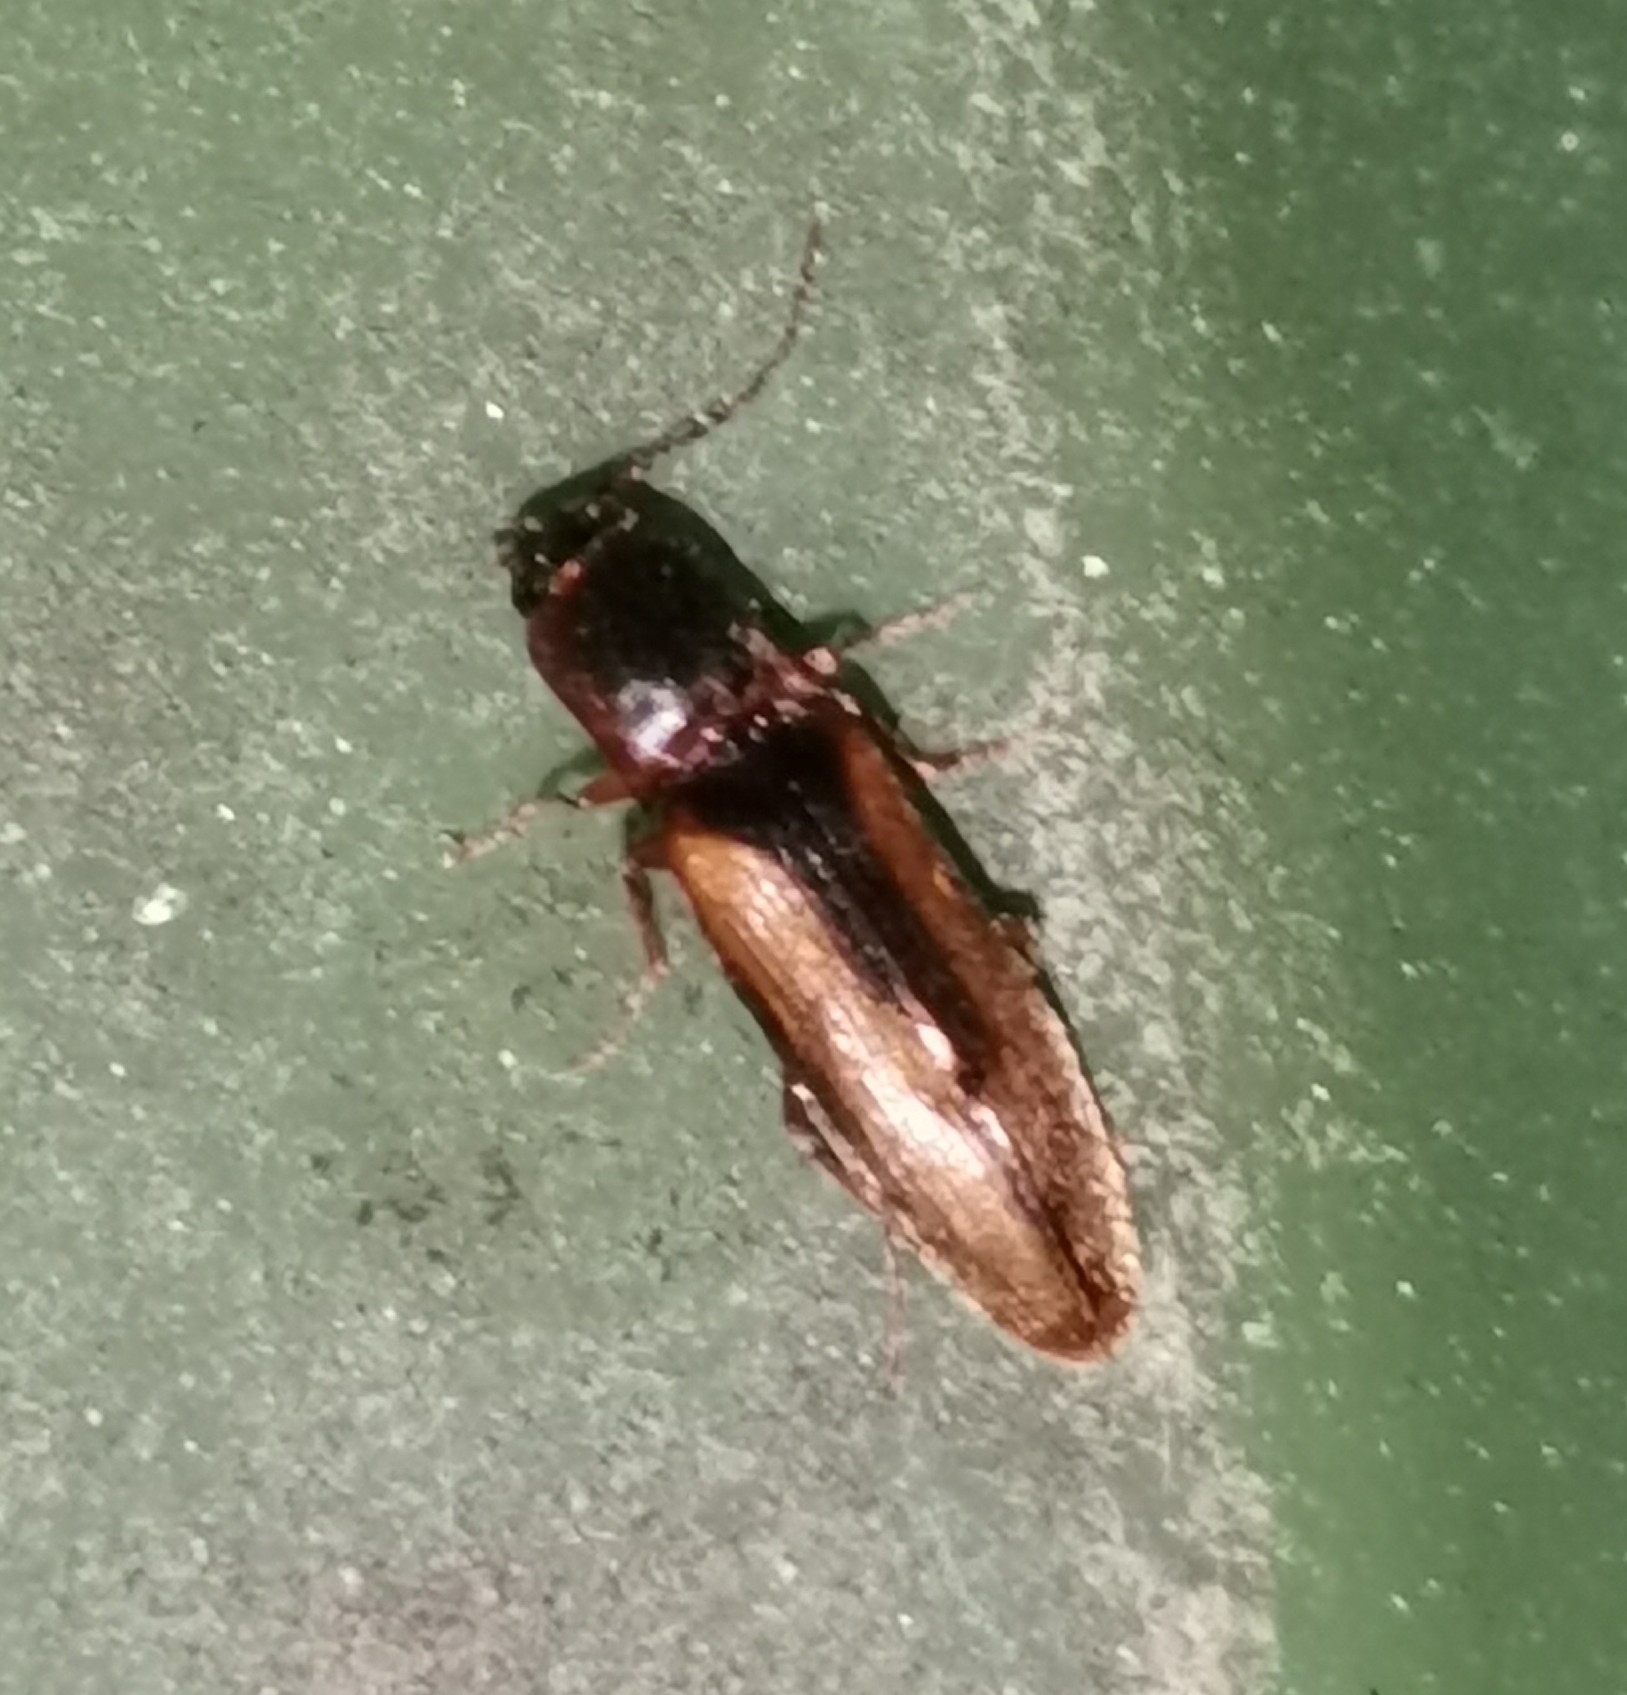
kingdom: Animalia
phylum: Arthropoda
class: Insecta
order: Coleoptera
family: Elateridae
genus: Dalopius
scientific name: Dalopius marginatus
